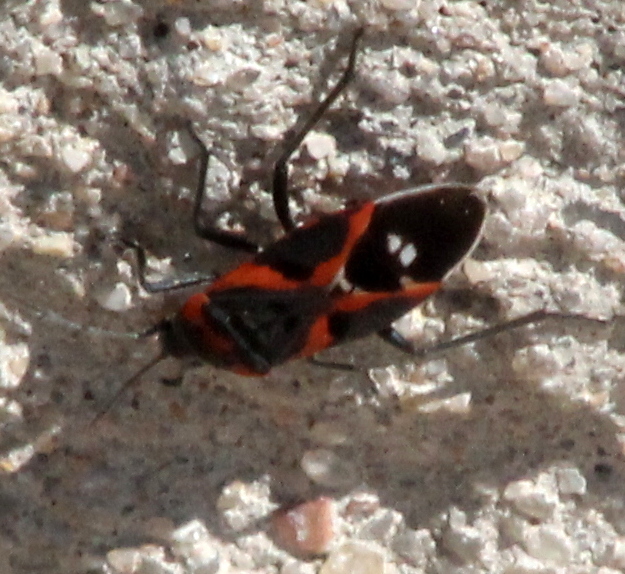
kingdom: Animalia
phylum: Arthropoda
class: Insecta
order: Hemiptera
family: Lygaeidae
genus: Lygaeus
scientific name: Lygaeus kalmii
